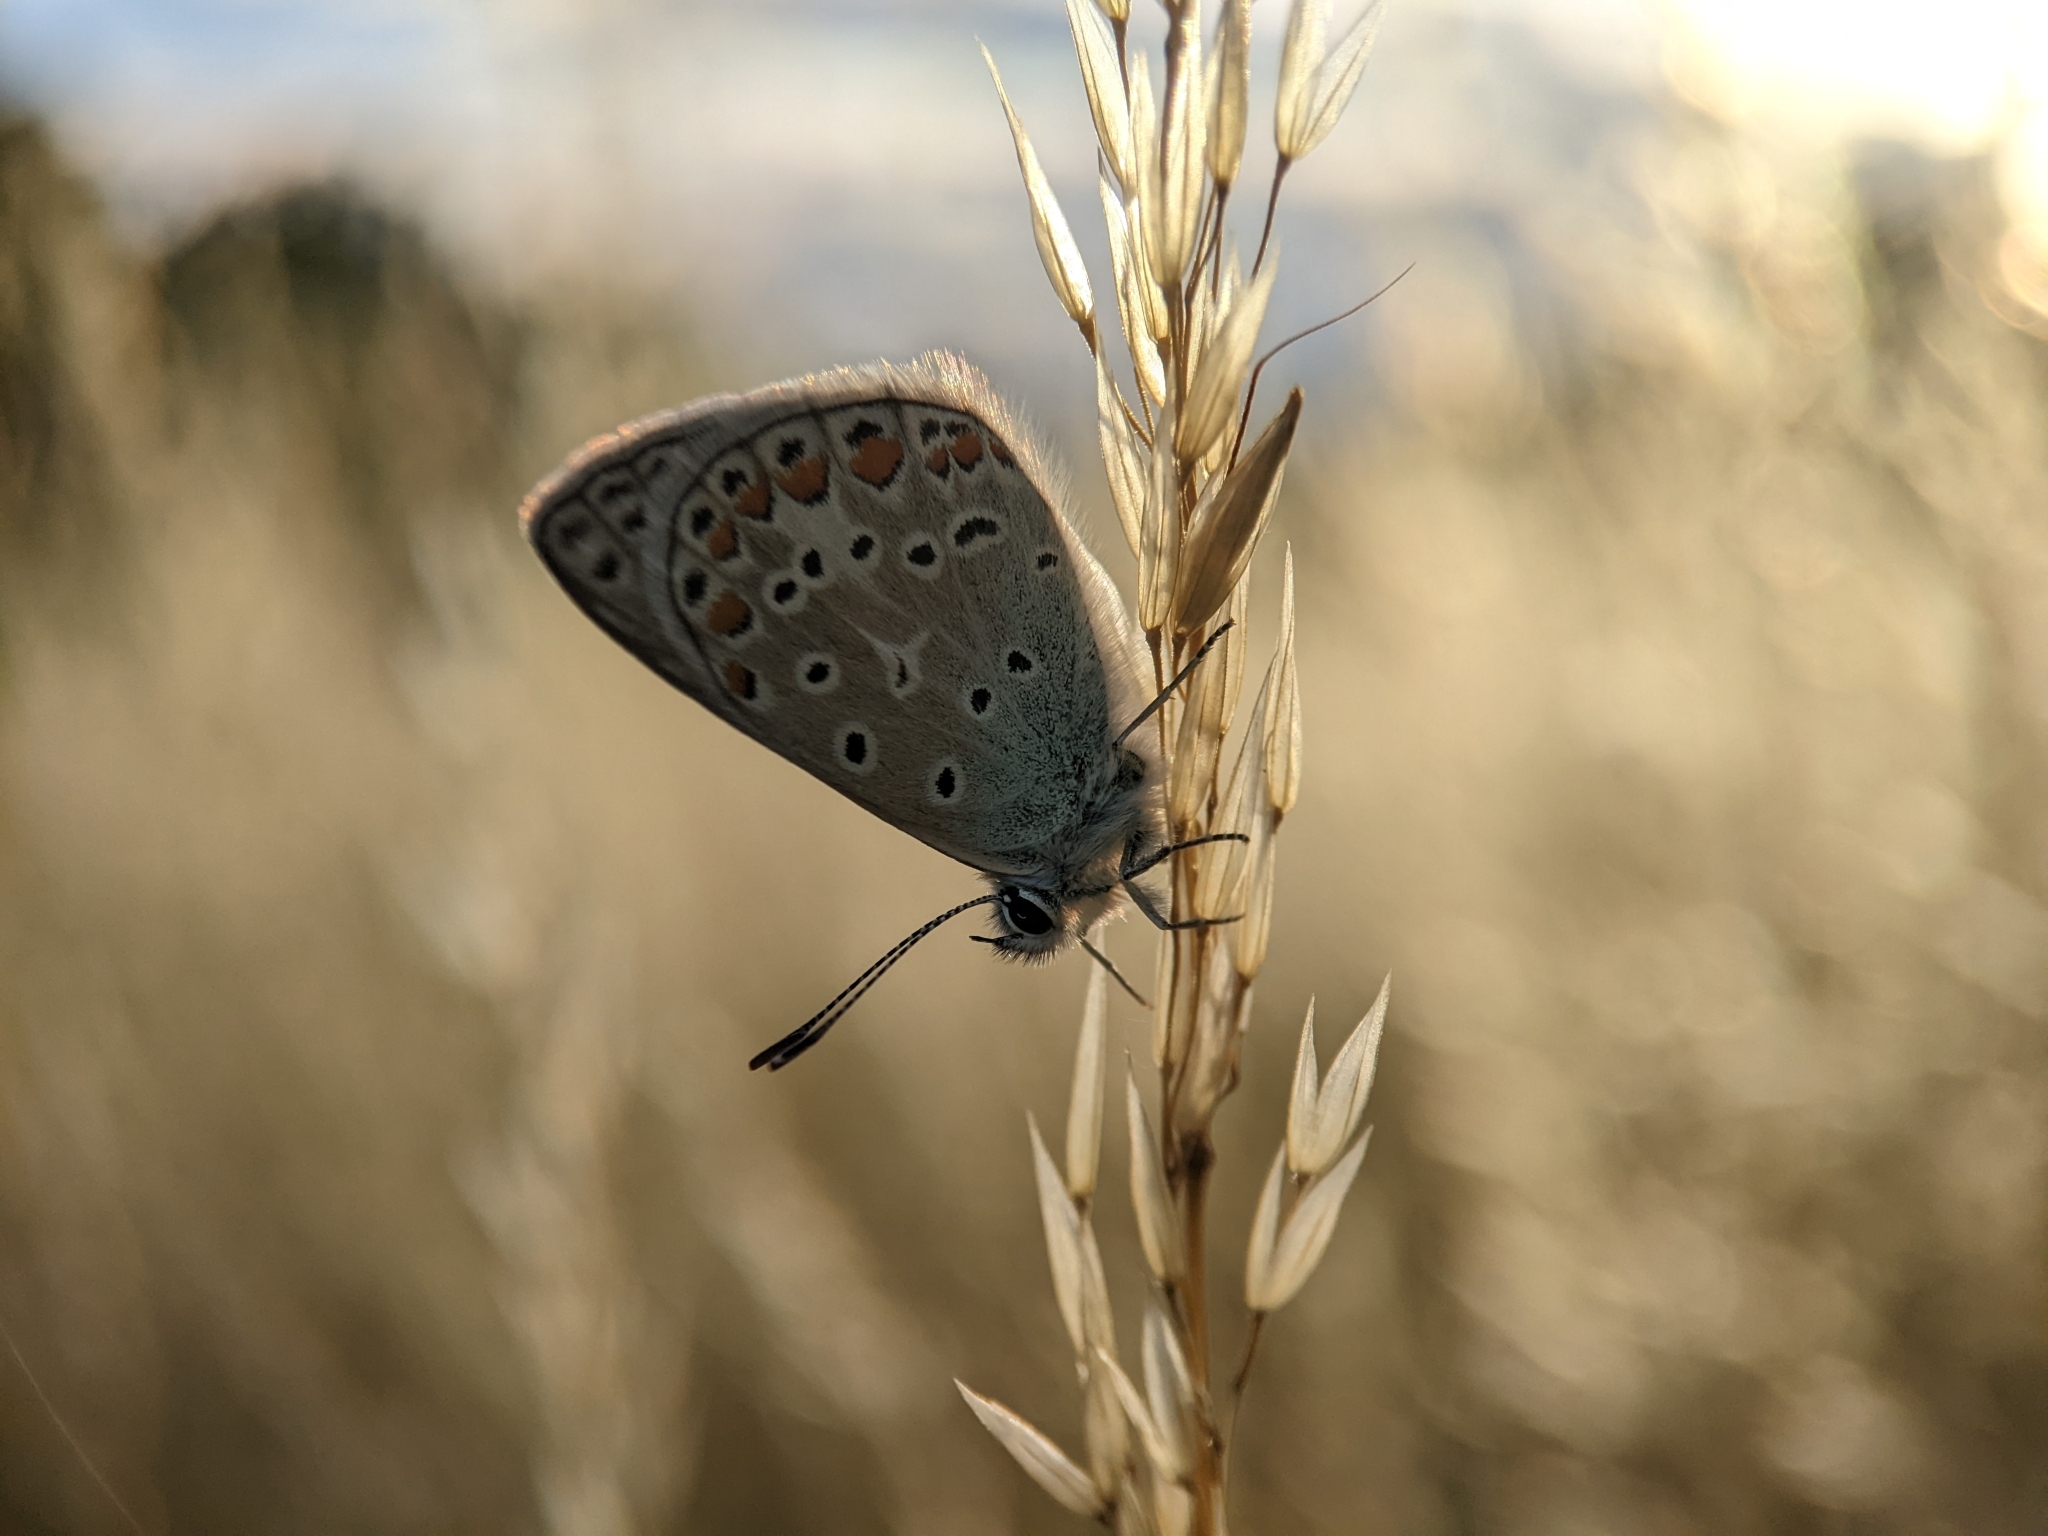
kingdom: Animalia
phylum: Arthropoda
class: Insecta
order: Lepidoptera
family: Lycaenidae
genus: Polyommatus
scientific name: Polyommatus icarus
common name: Common blue
